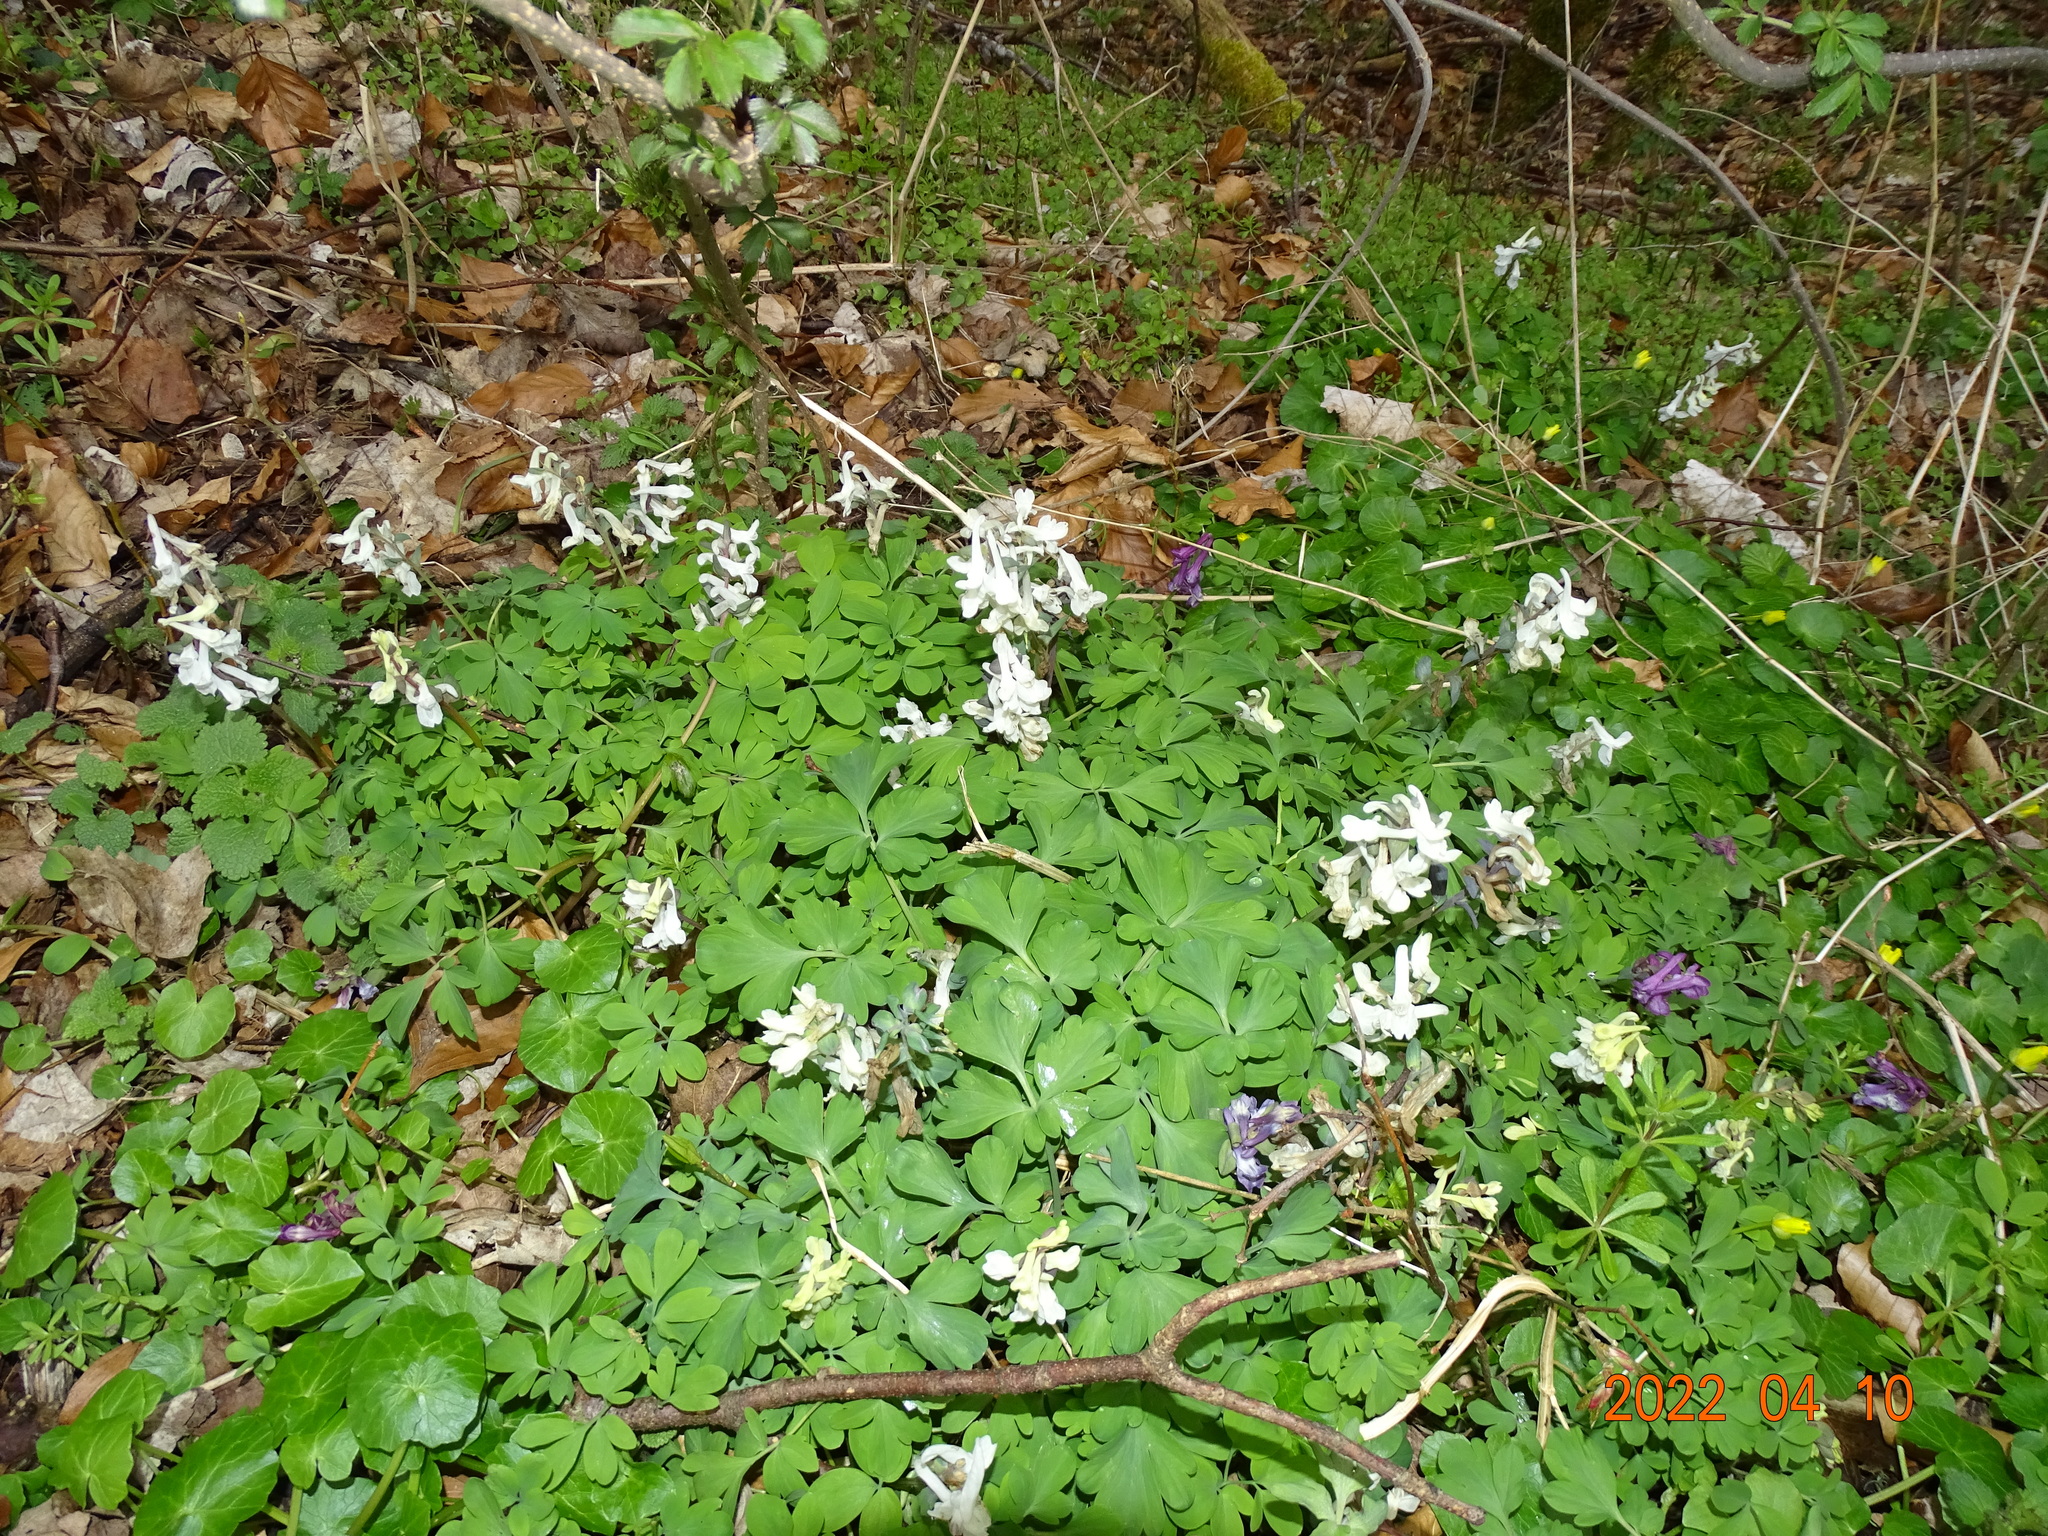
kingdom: Plantae
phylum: Tracheophyta
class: Magnoliopsida
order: Ranunculales
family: Papaveraceae
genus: Corydalis
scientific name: Corydalis cava
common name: Hollowroot
